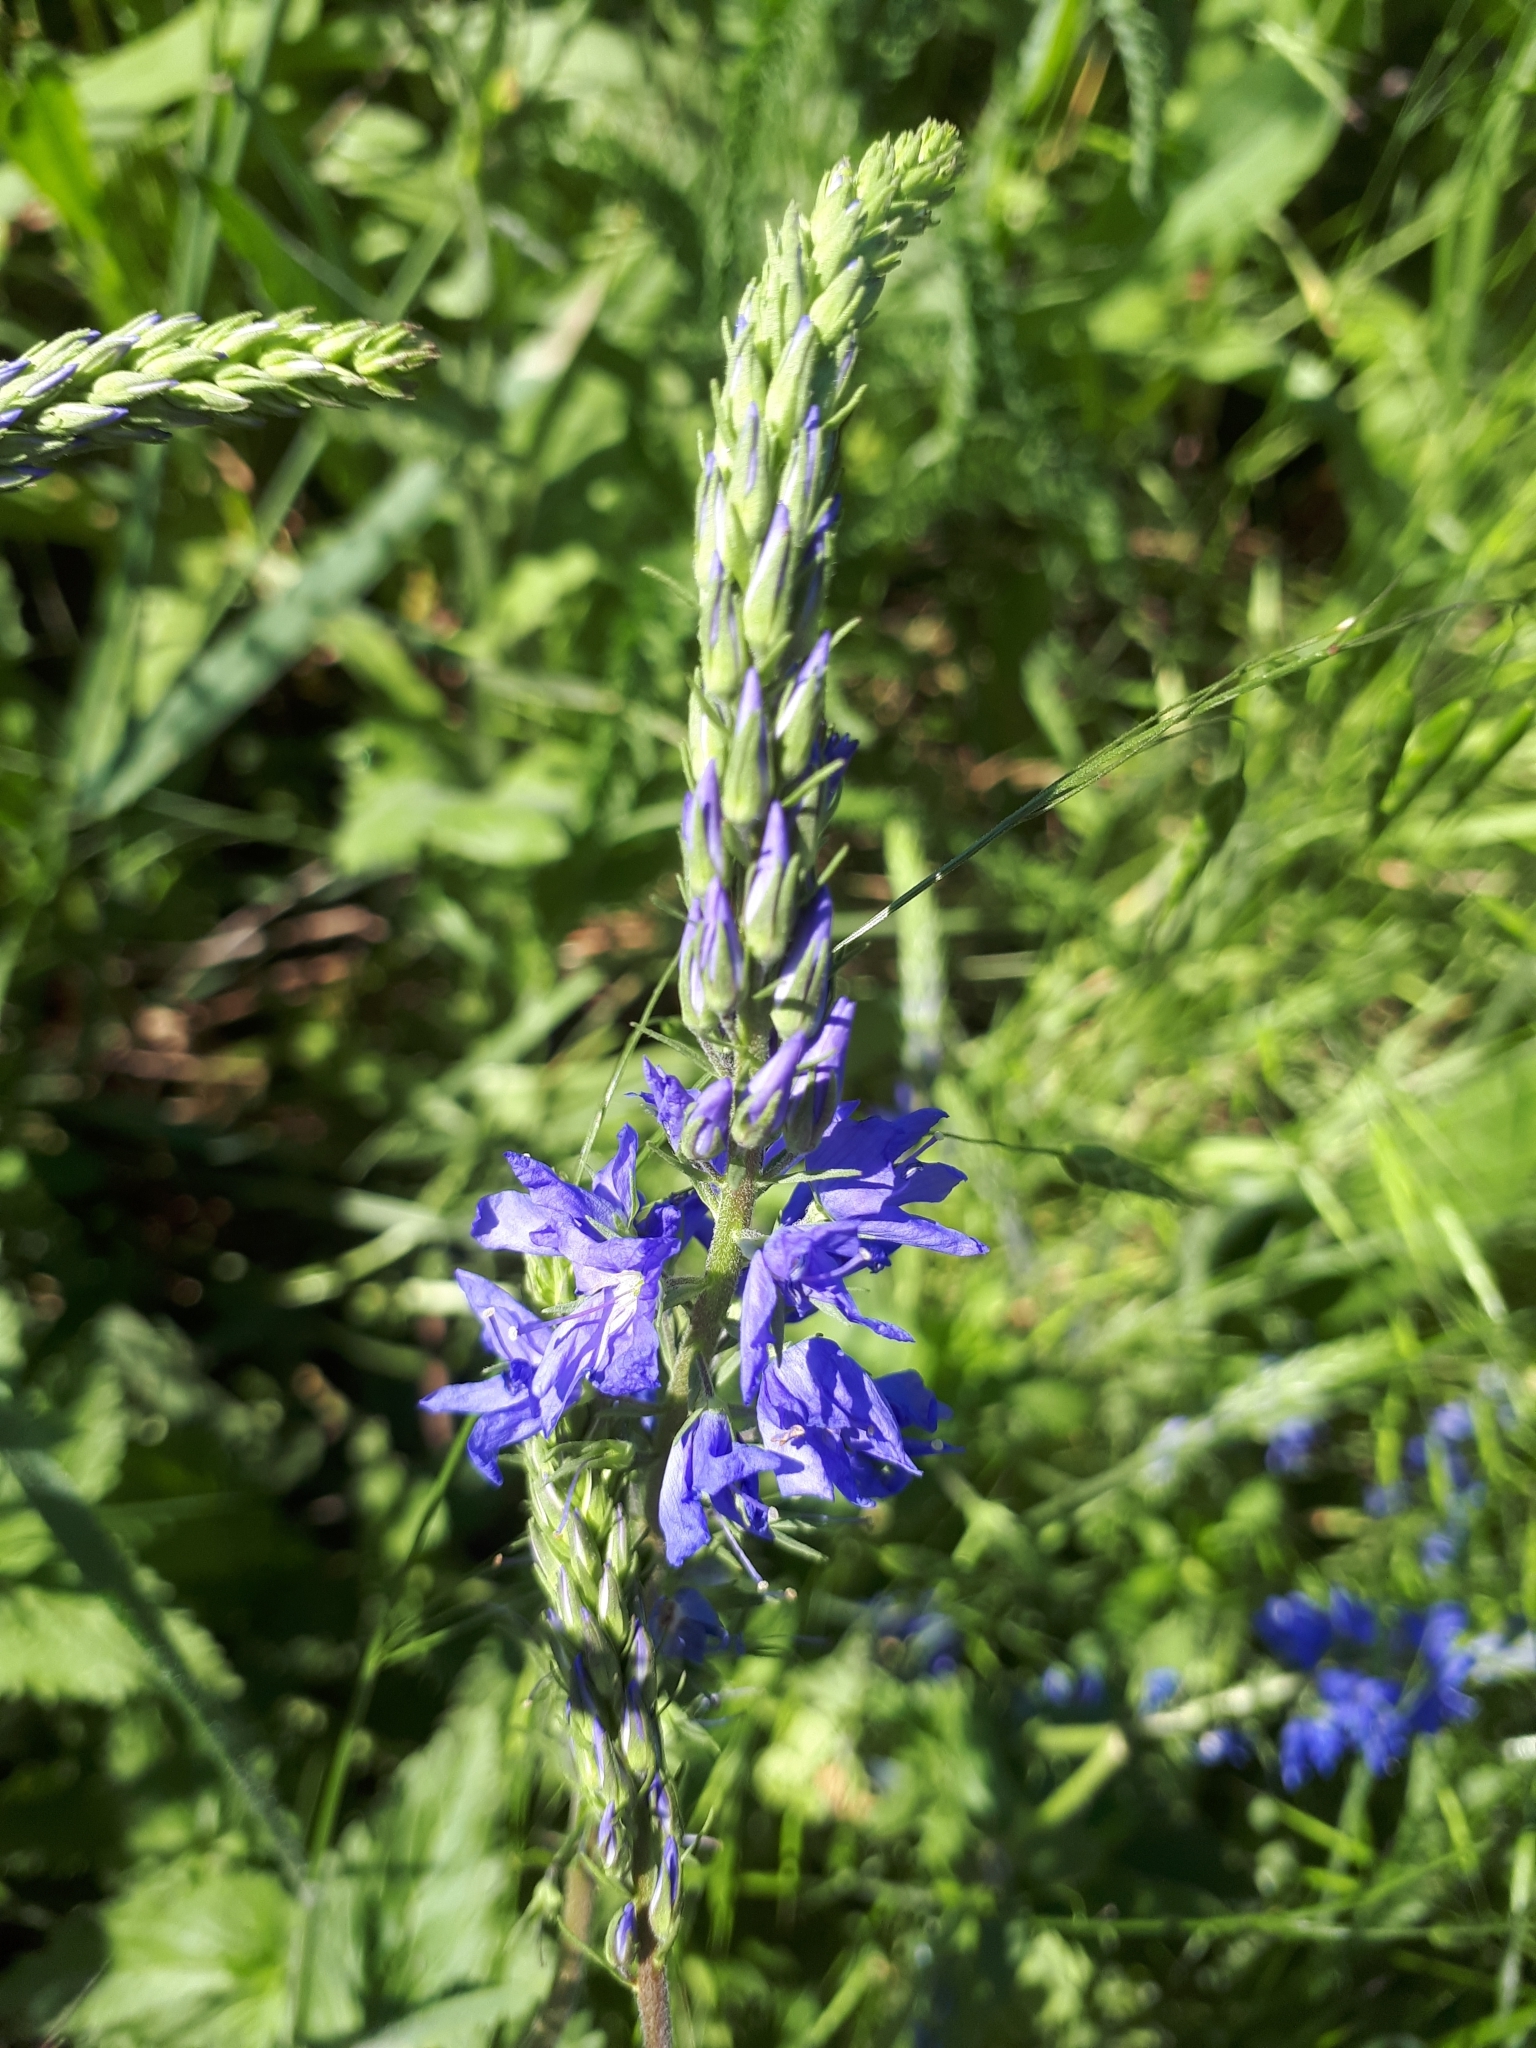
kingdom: Plantae
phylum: Tracheophyta
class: Magnoliopsida
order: Lamiales
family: Plantaginaceae
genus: Veronica
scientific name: Veronica teucrium
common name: Large speedwell
